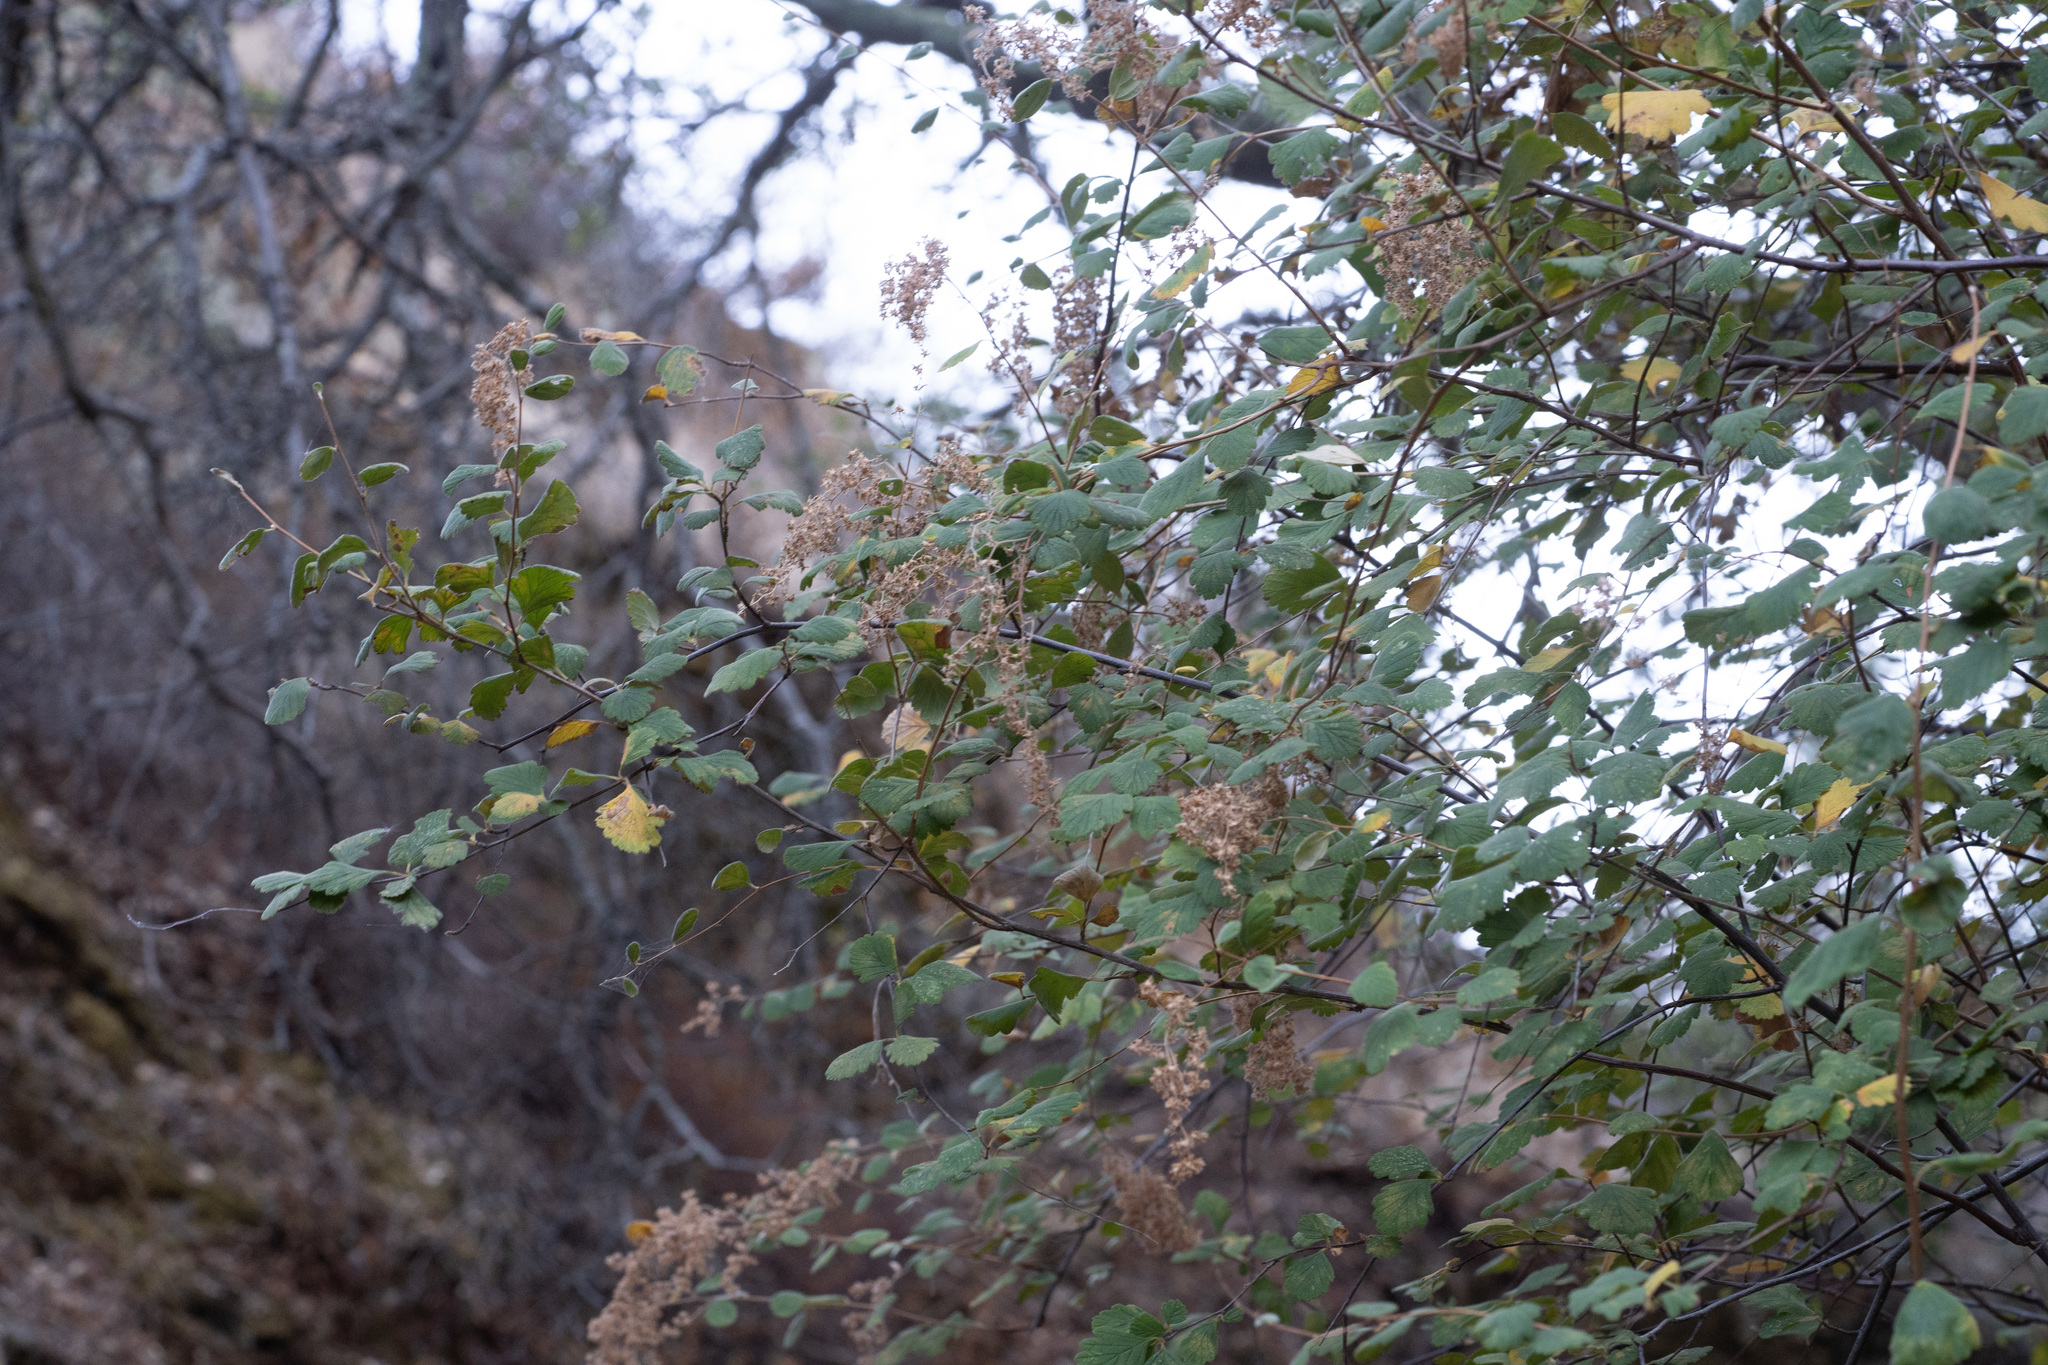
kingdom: Plantae
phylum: Tracheophyta
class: Magnoliopsida
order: Rosales
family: Rosaceae
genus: Holodiscus
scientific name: Holodiscus discolor
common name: Oceanspray
